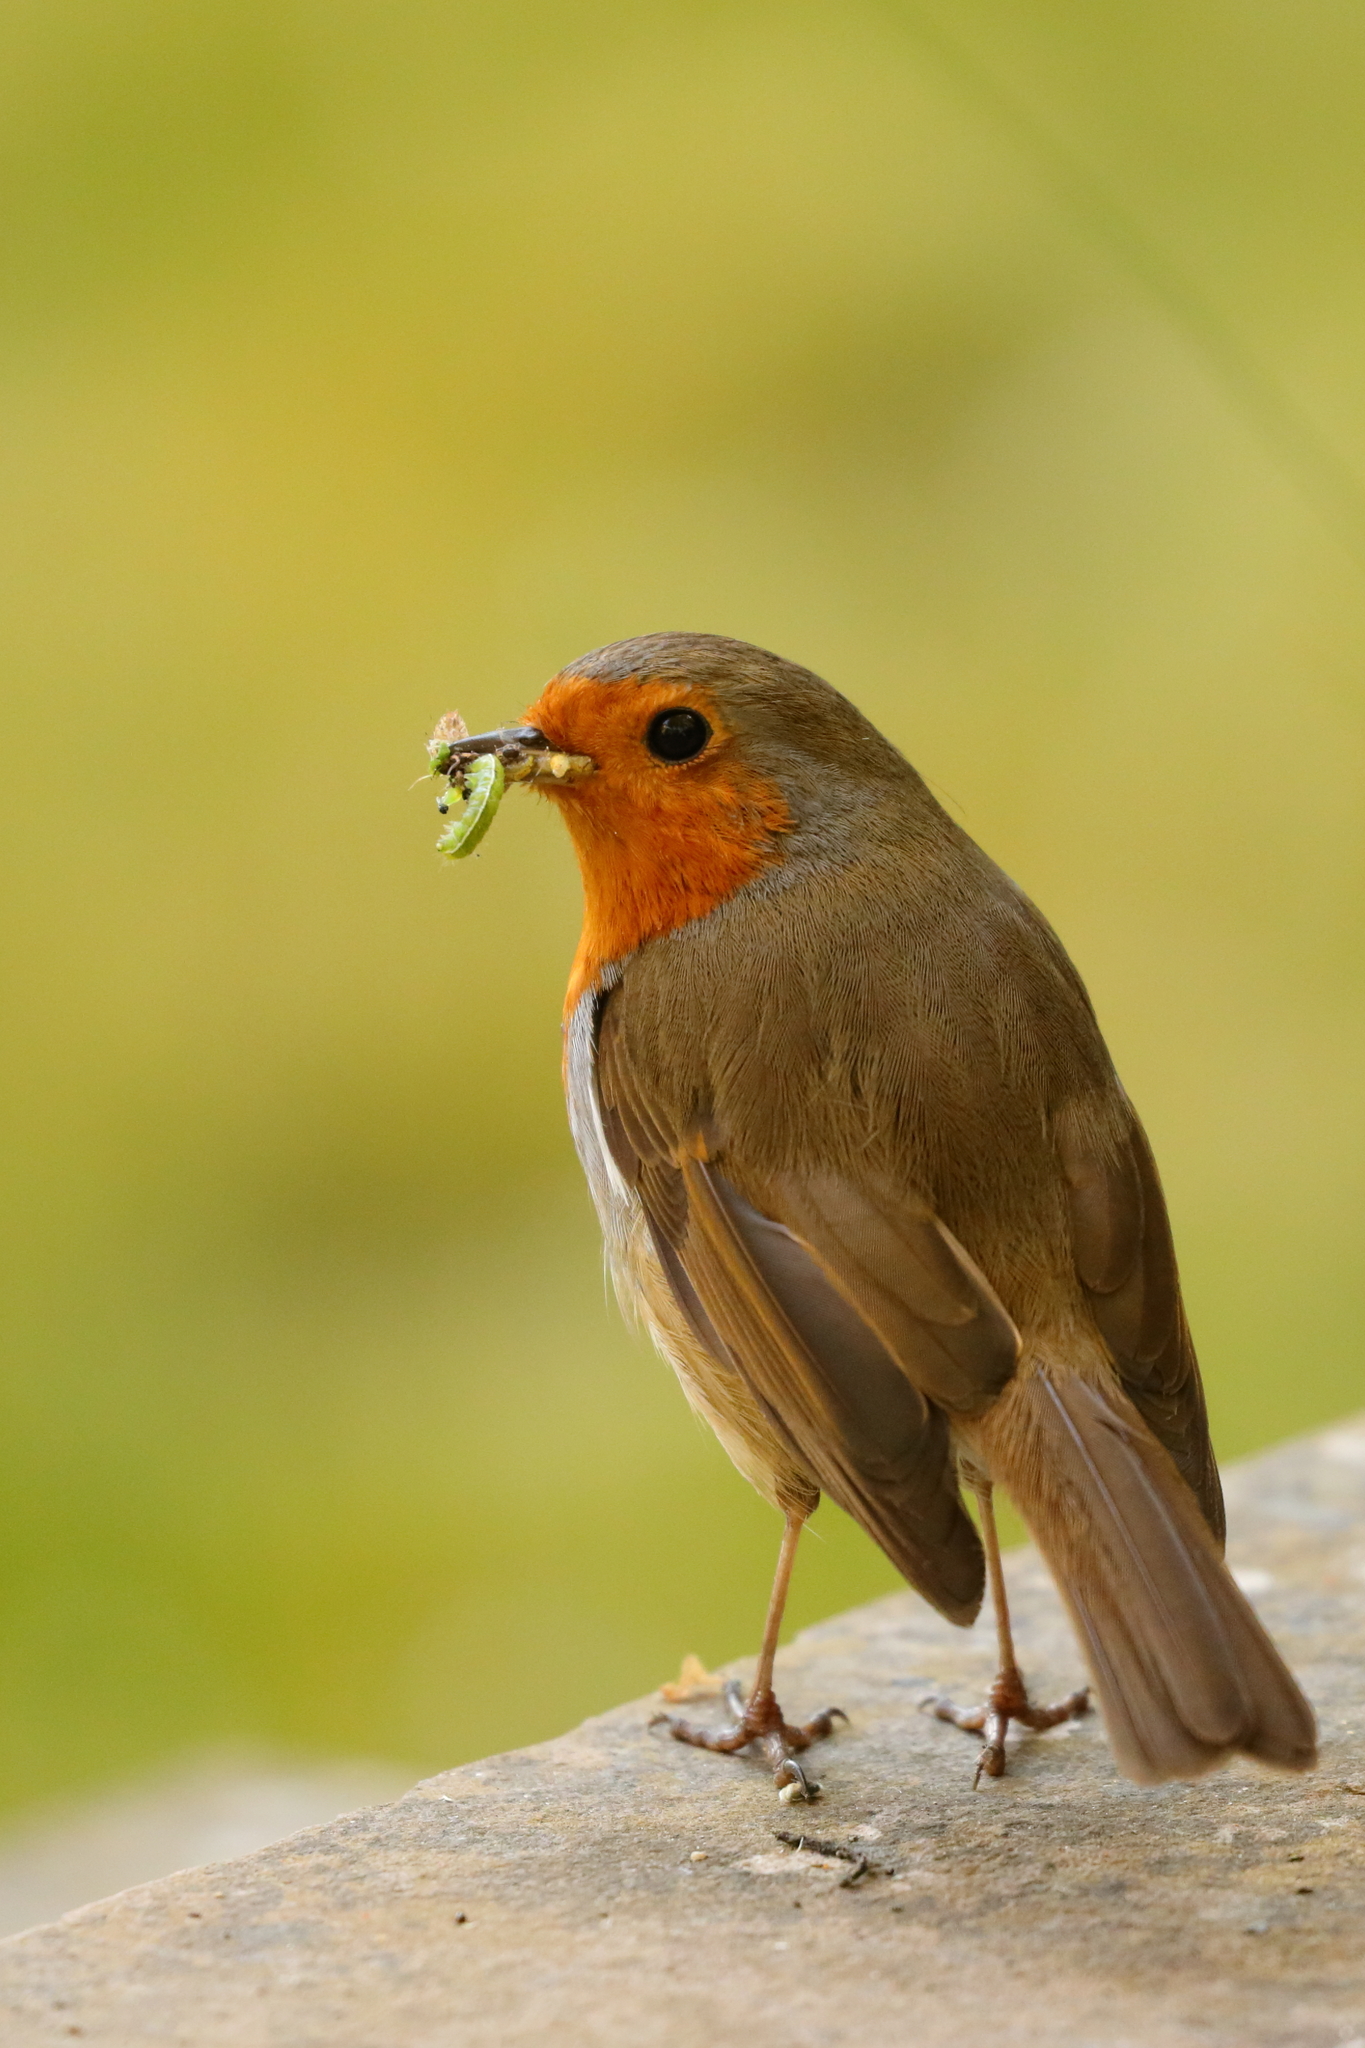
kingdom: Animalia
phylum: Chordata
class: Aves
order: Passeriformes
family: Muscicapidae
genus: Erithacus
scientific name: Erithacus rubecula
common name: European robin
